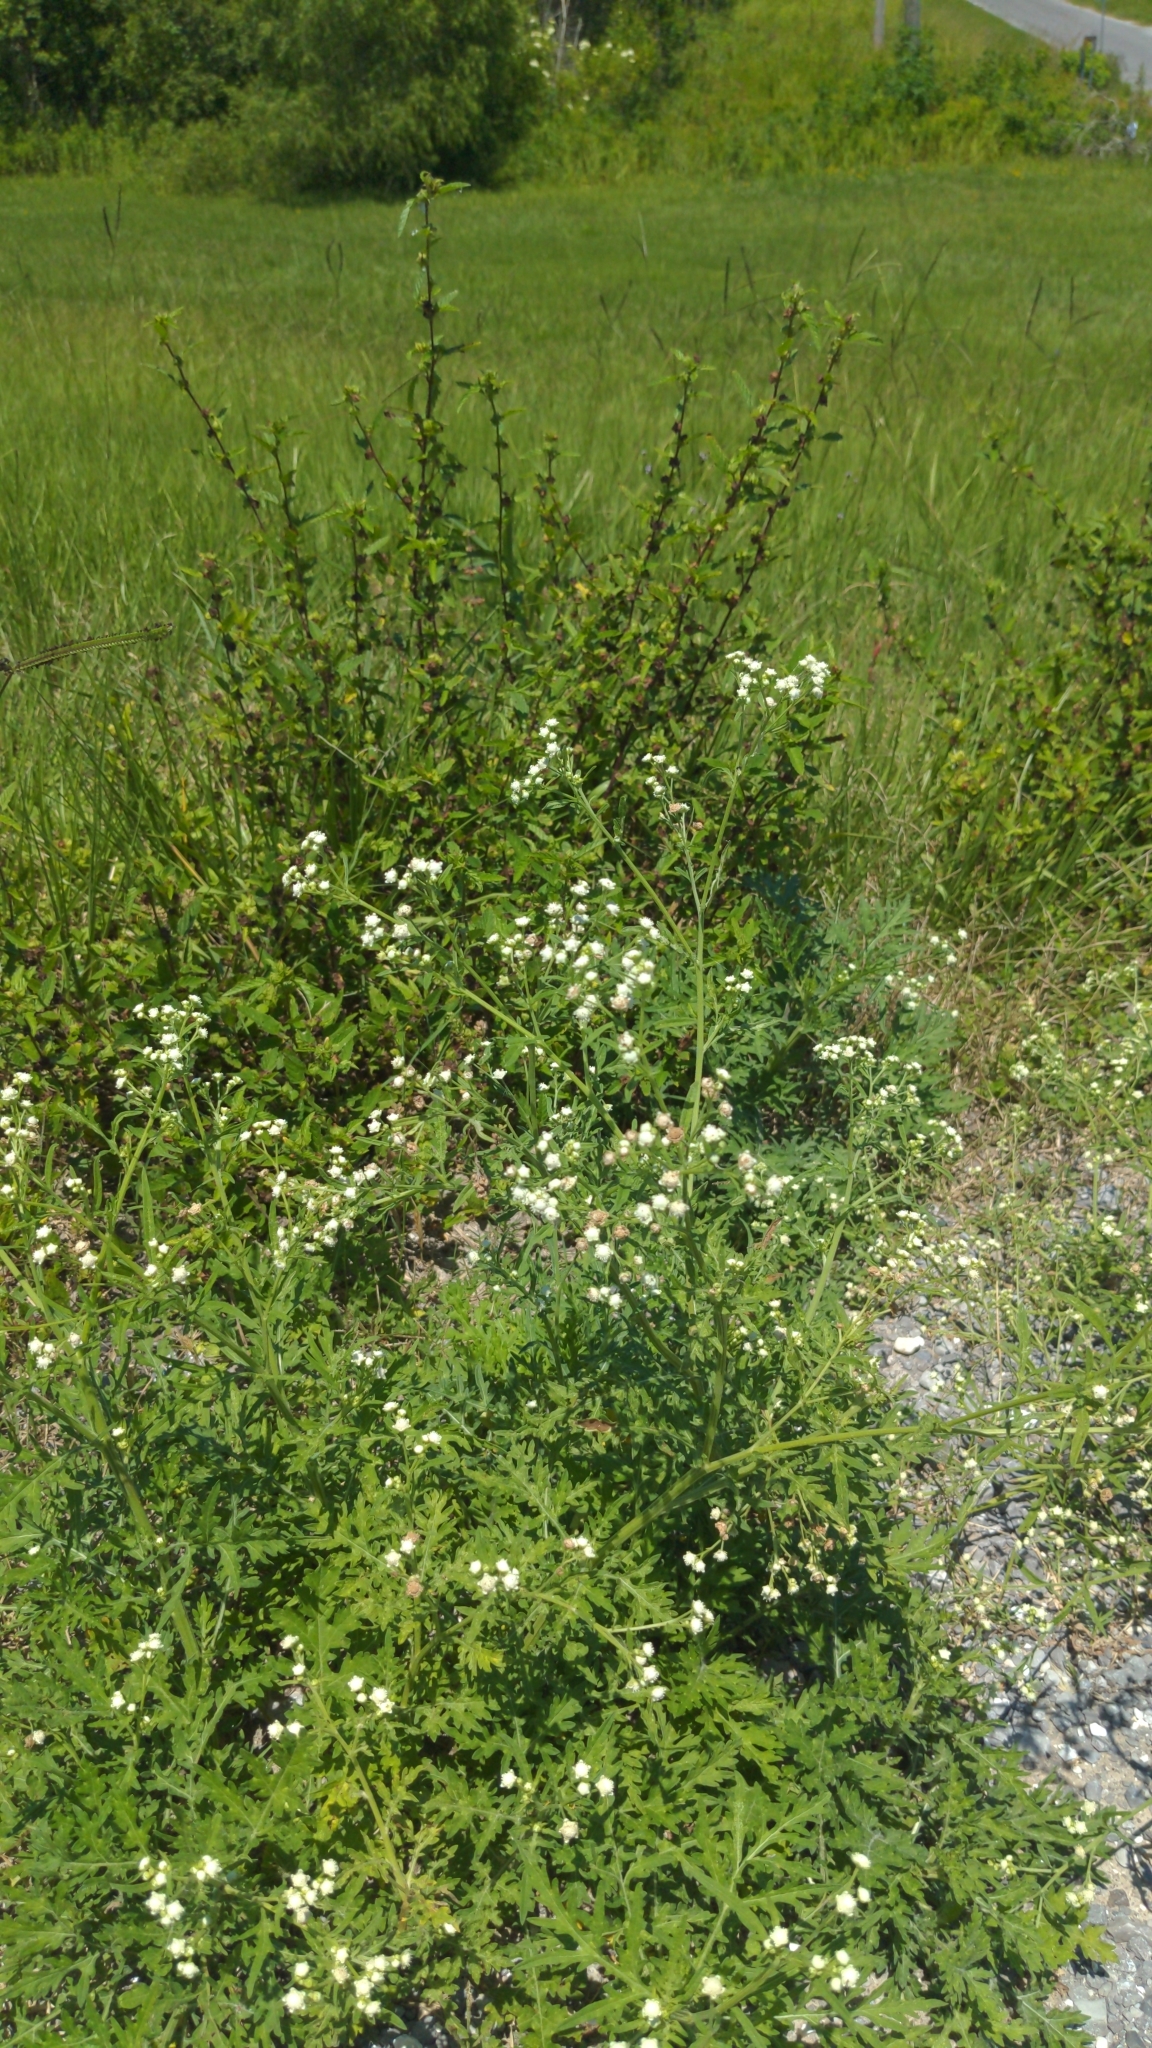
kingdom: Plantae
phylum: Tracheophyta
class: Magnoliopsida
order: Asterales
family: Asteraceae
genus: Parthenium
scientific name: Parthenium hysterophorus
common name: Santa maria feverfew
